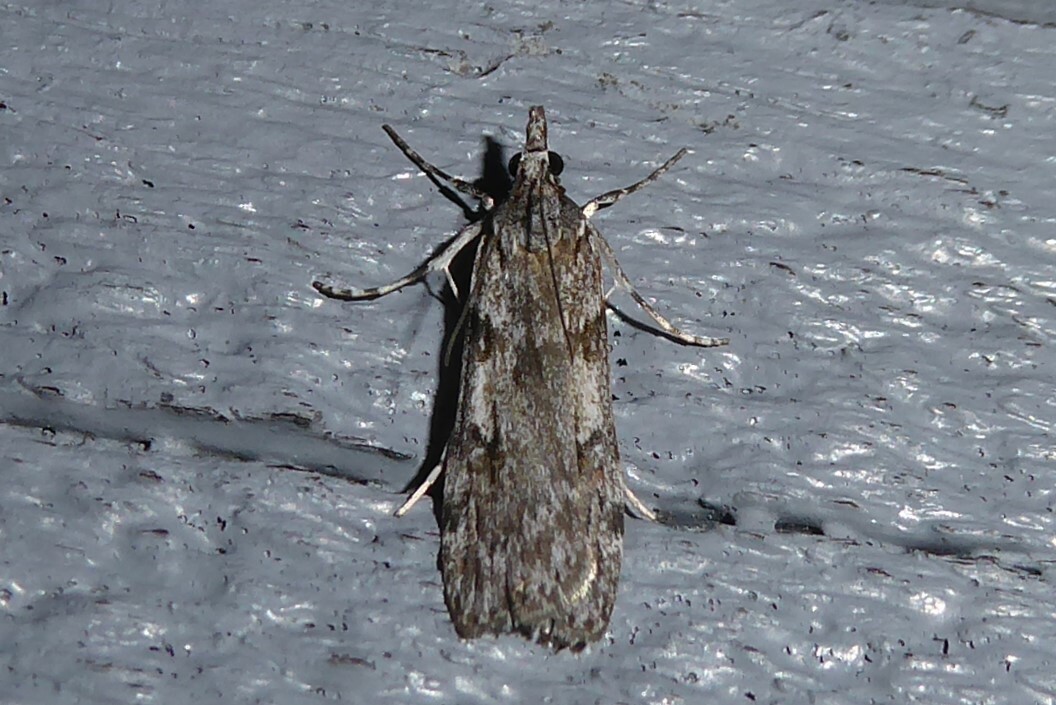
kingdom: Animalia
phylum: Arthropoda
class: Insecta
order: Lepidoptera
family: Crambidae
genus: Scoparia
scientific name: Scoparia halopis
